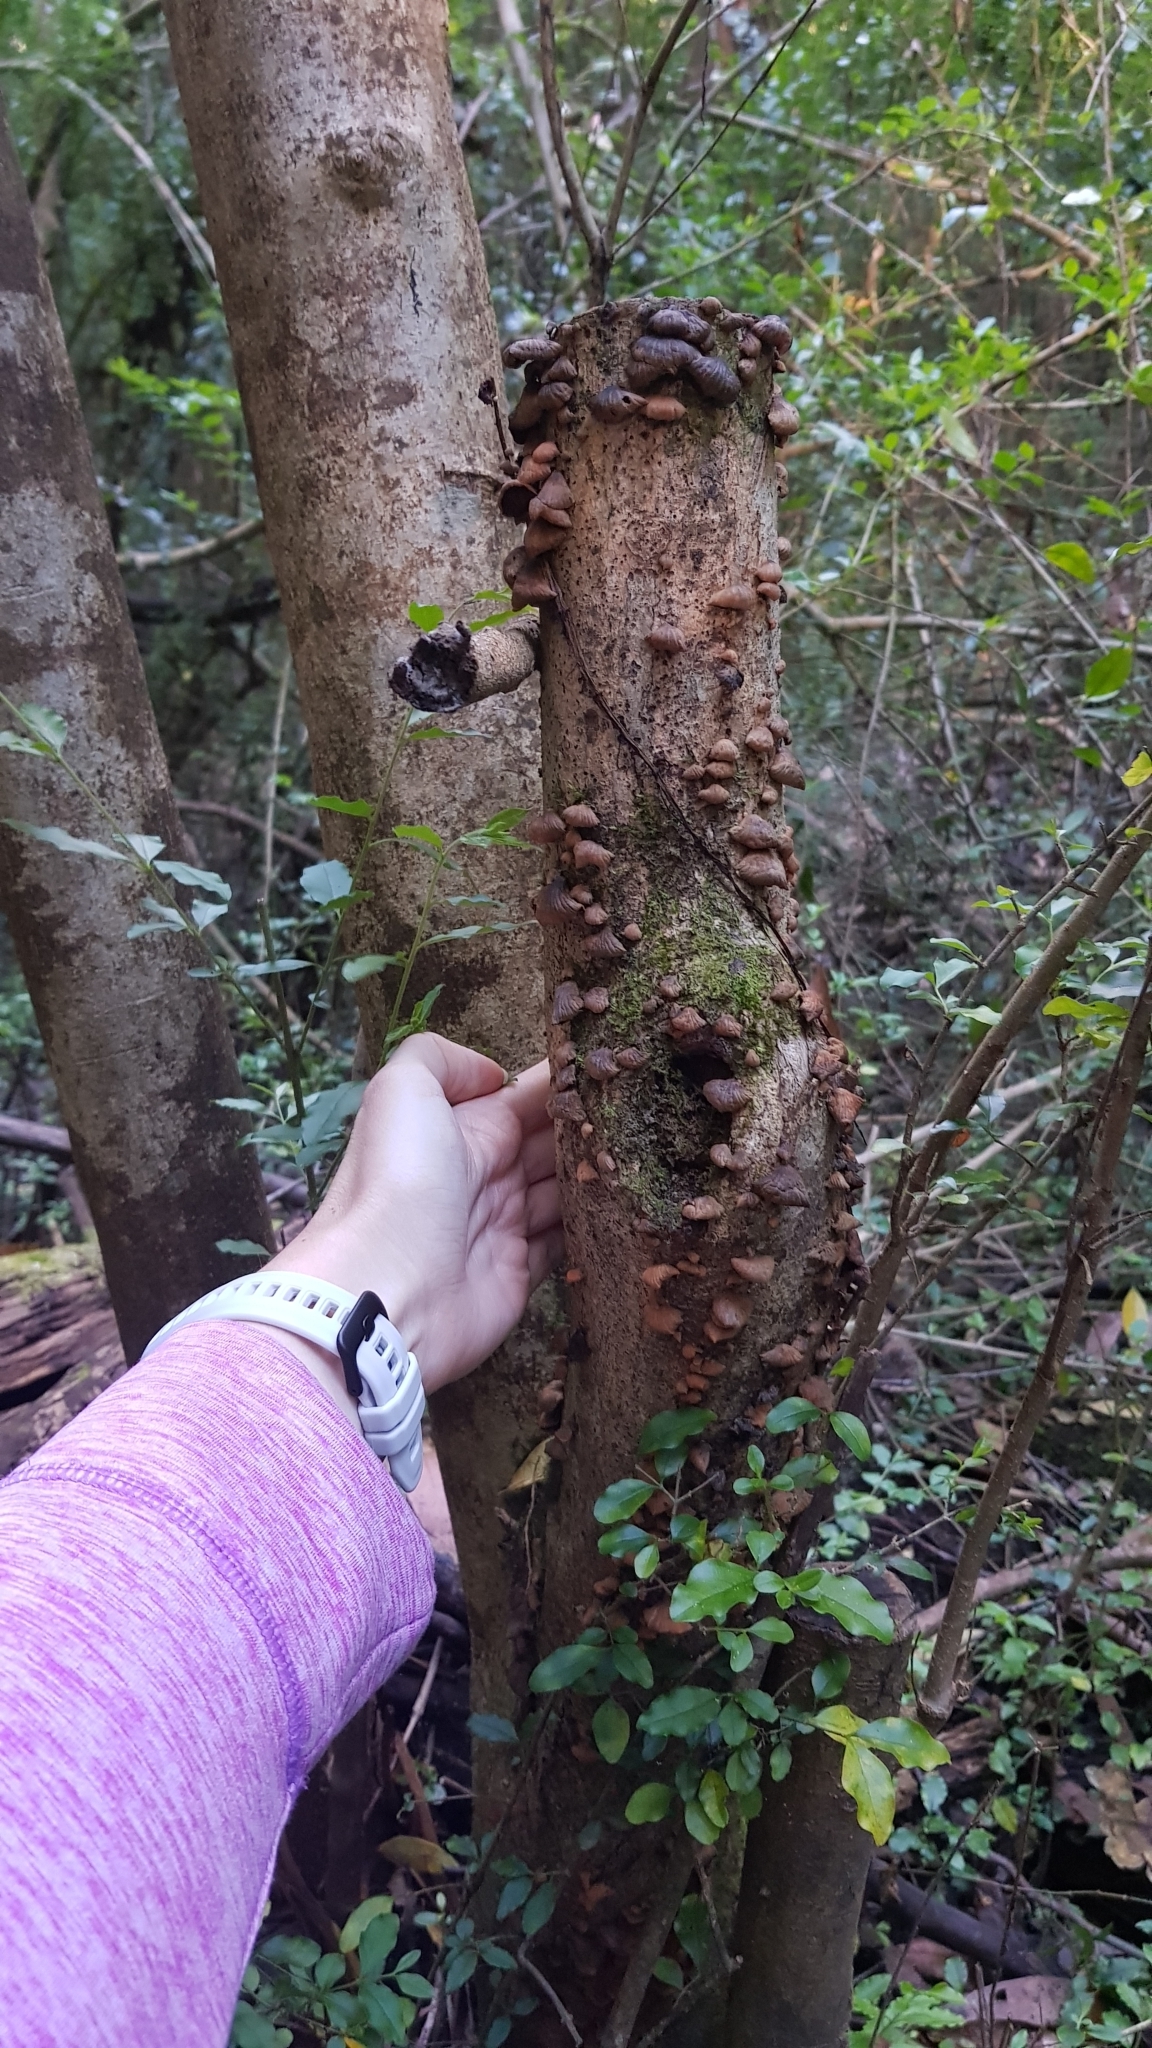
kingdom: Fungi
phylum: Basidiomycota
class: Agaricomycetes
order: Agaricales
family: Omphalotaceae
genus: Anthracophyllum
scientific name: Anthracophyllum archeri
